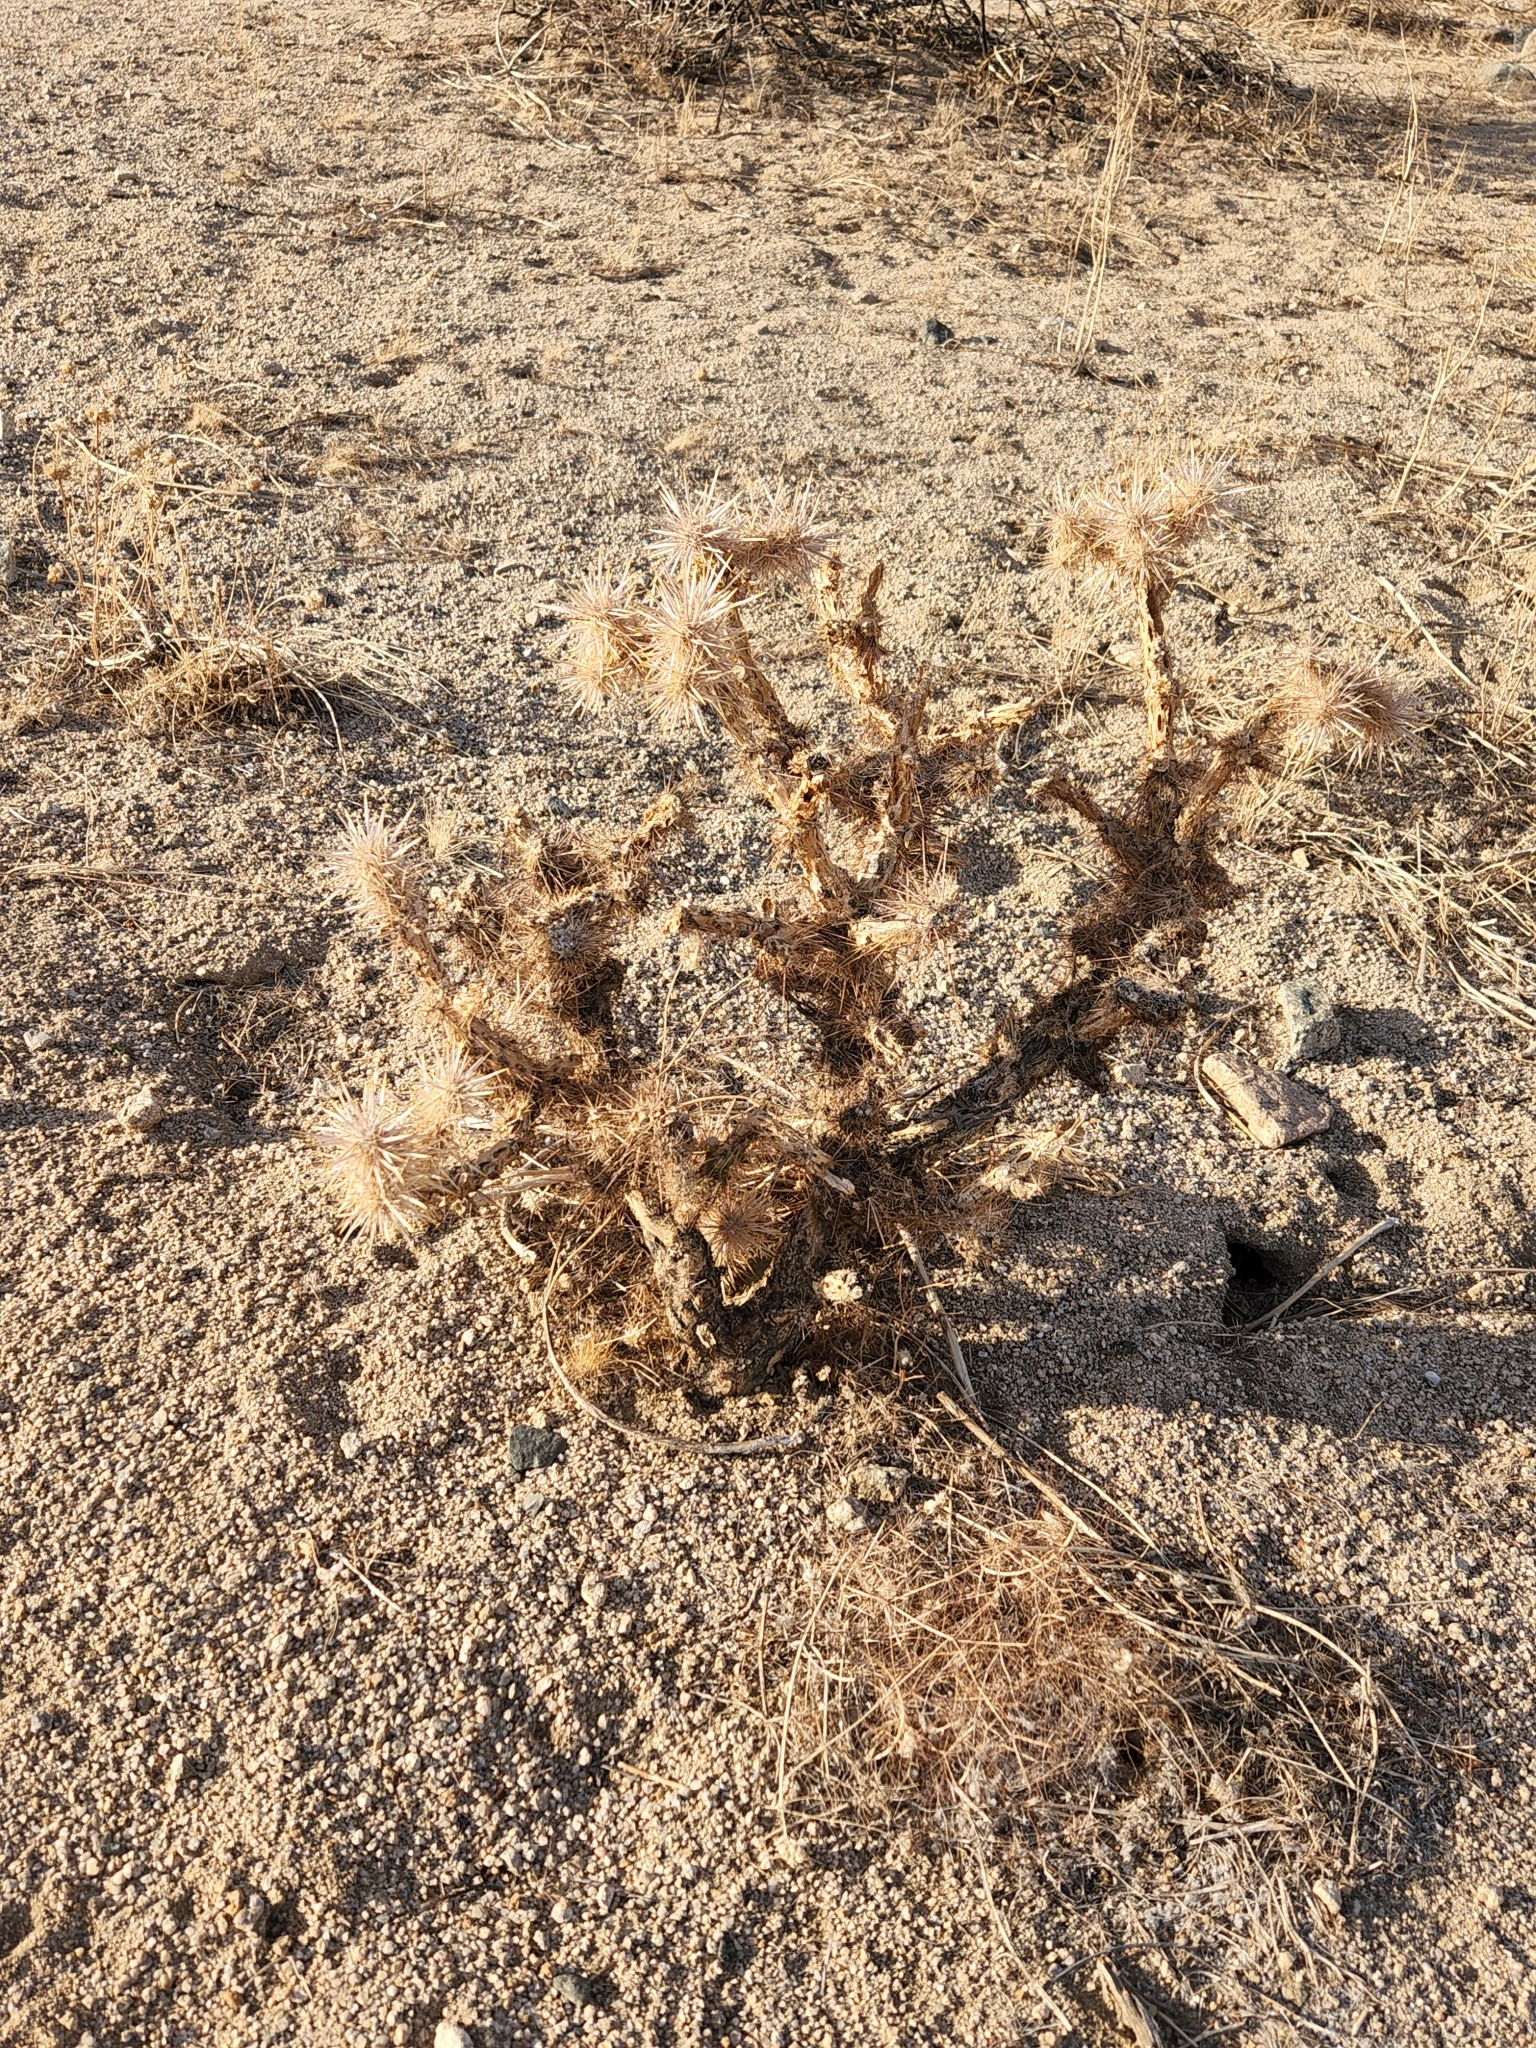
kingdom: Plantae
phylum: Tracheophyta
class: Magnoliopsida
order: Caryophyllales
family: Cactaceae
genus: Cylindropuntia
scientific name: Cylindropuntia echinocarpa
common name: Ground cholla
